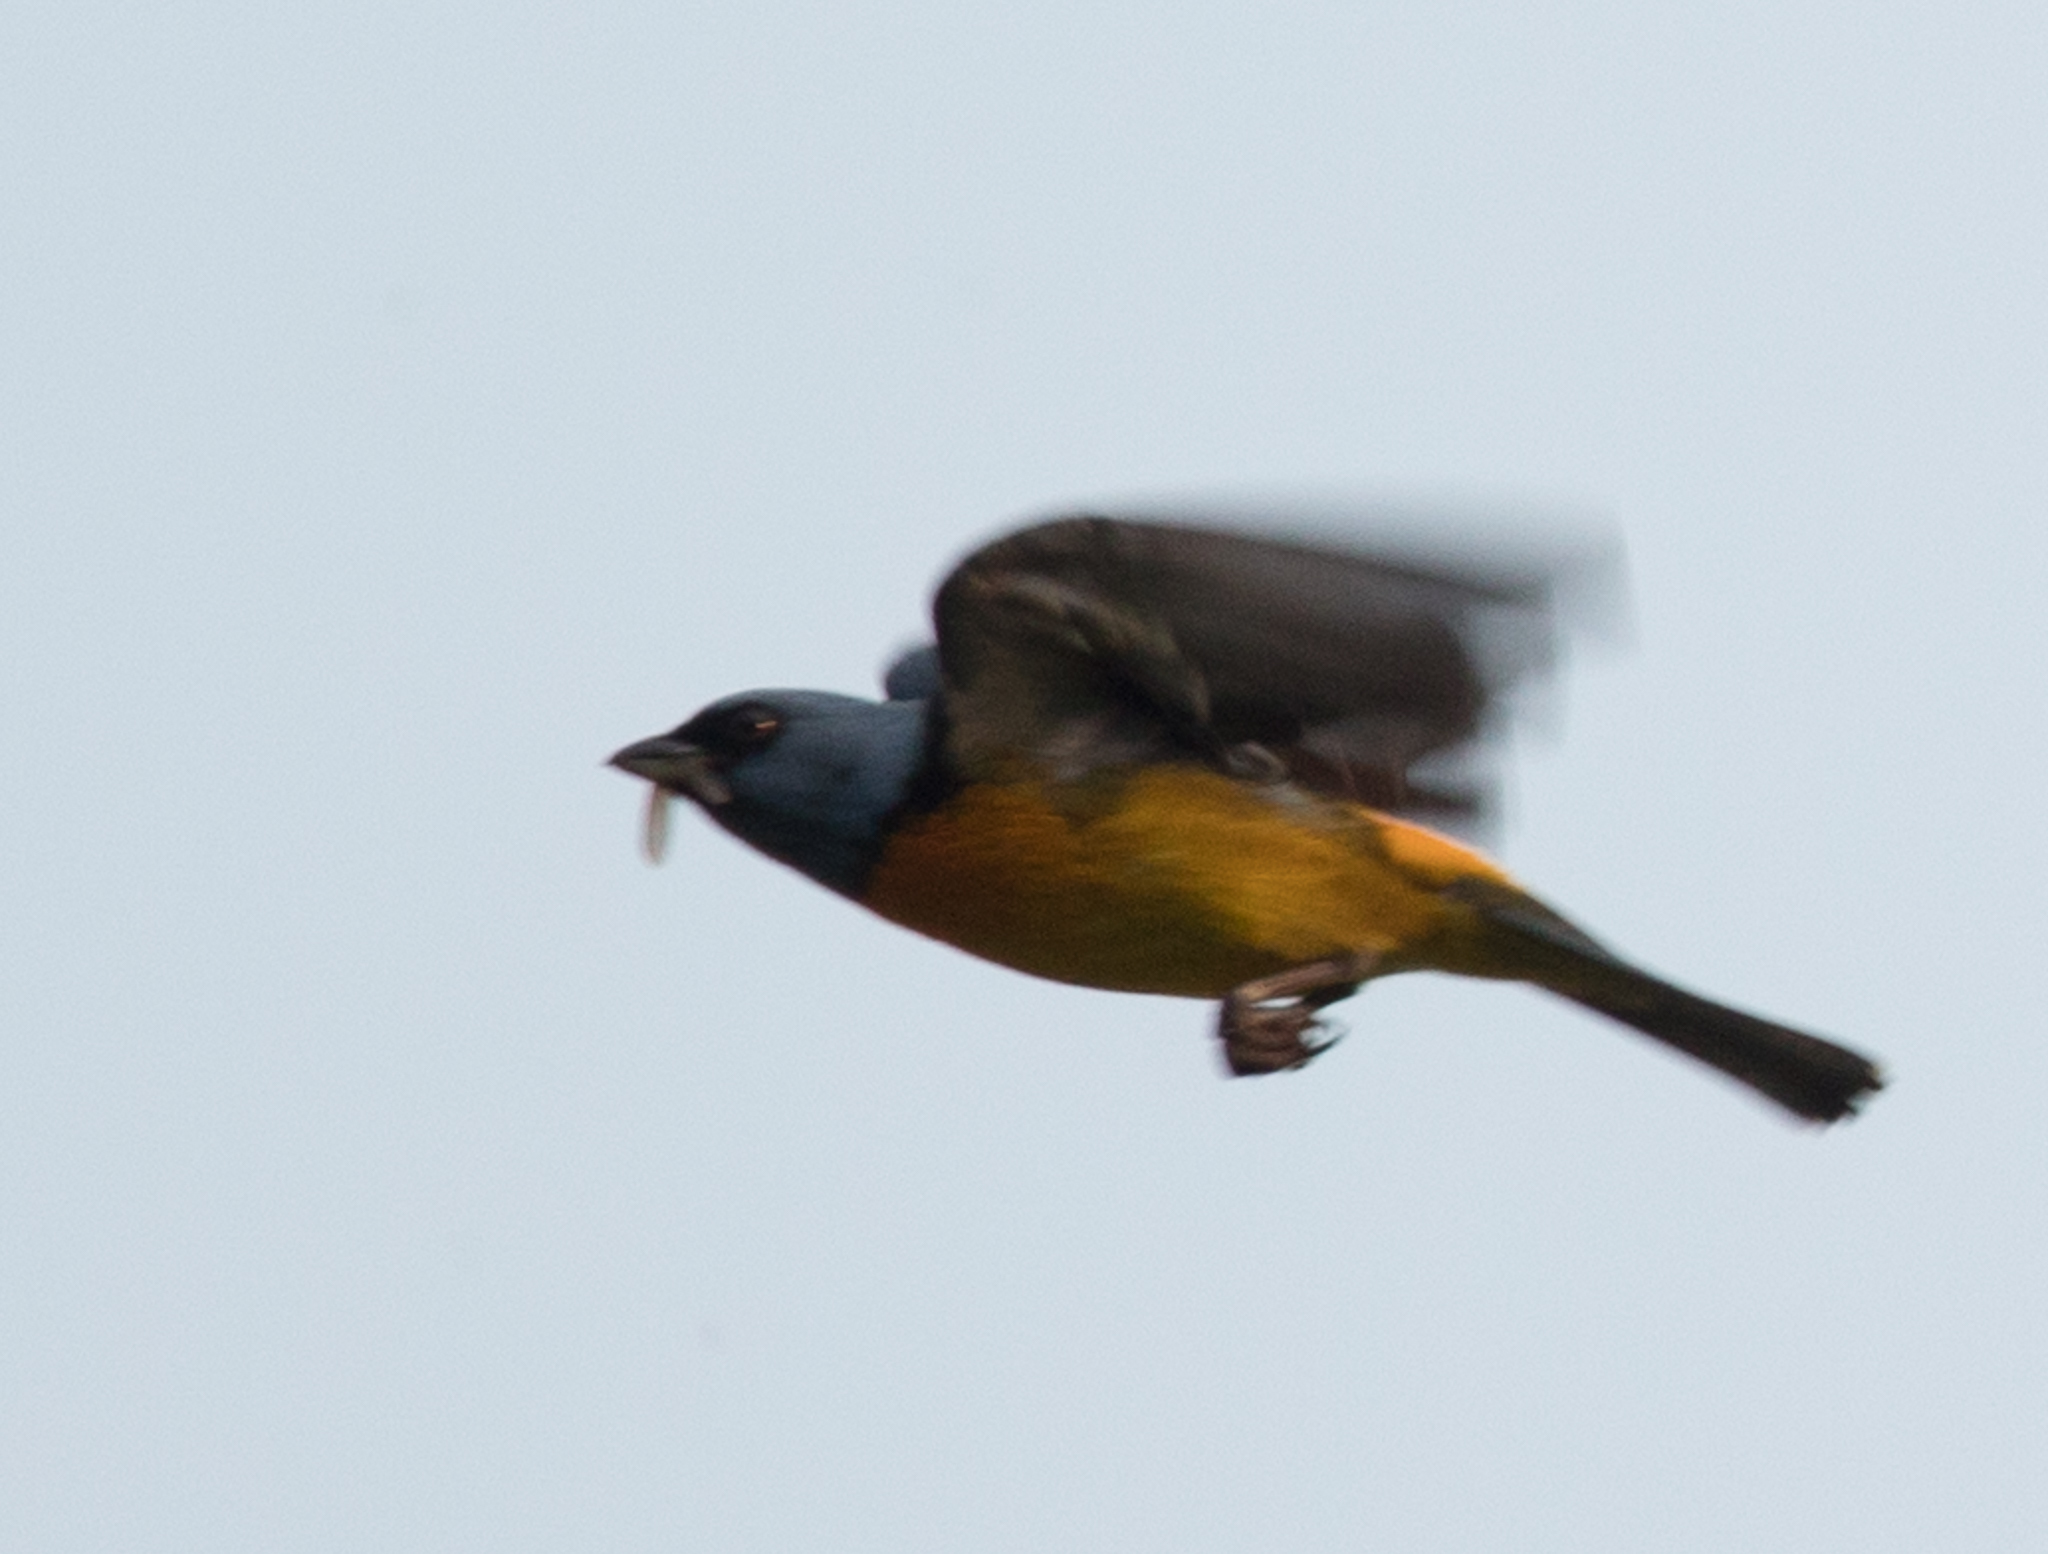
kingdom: Animalia
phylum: Chordata
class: Aves
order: Passeriformes
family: Thraupidae
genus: Rauenia
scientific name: Rauenia bonariensis
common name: Blue-and-yellow tanager
